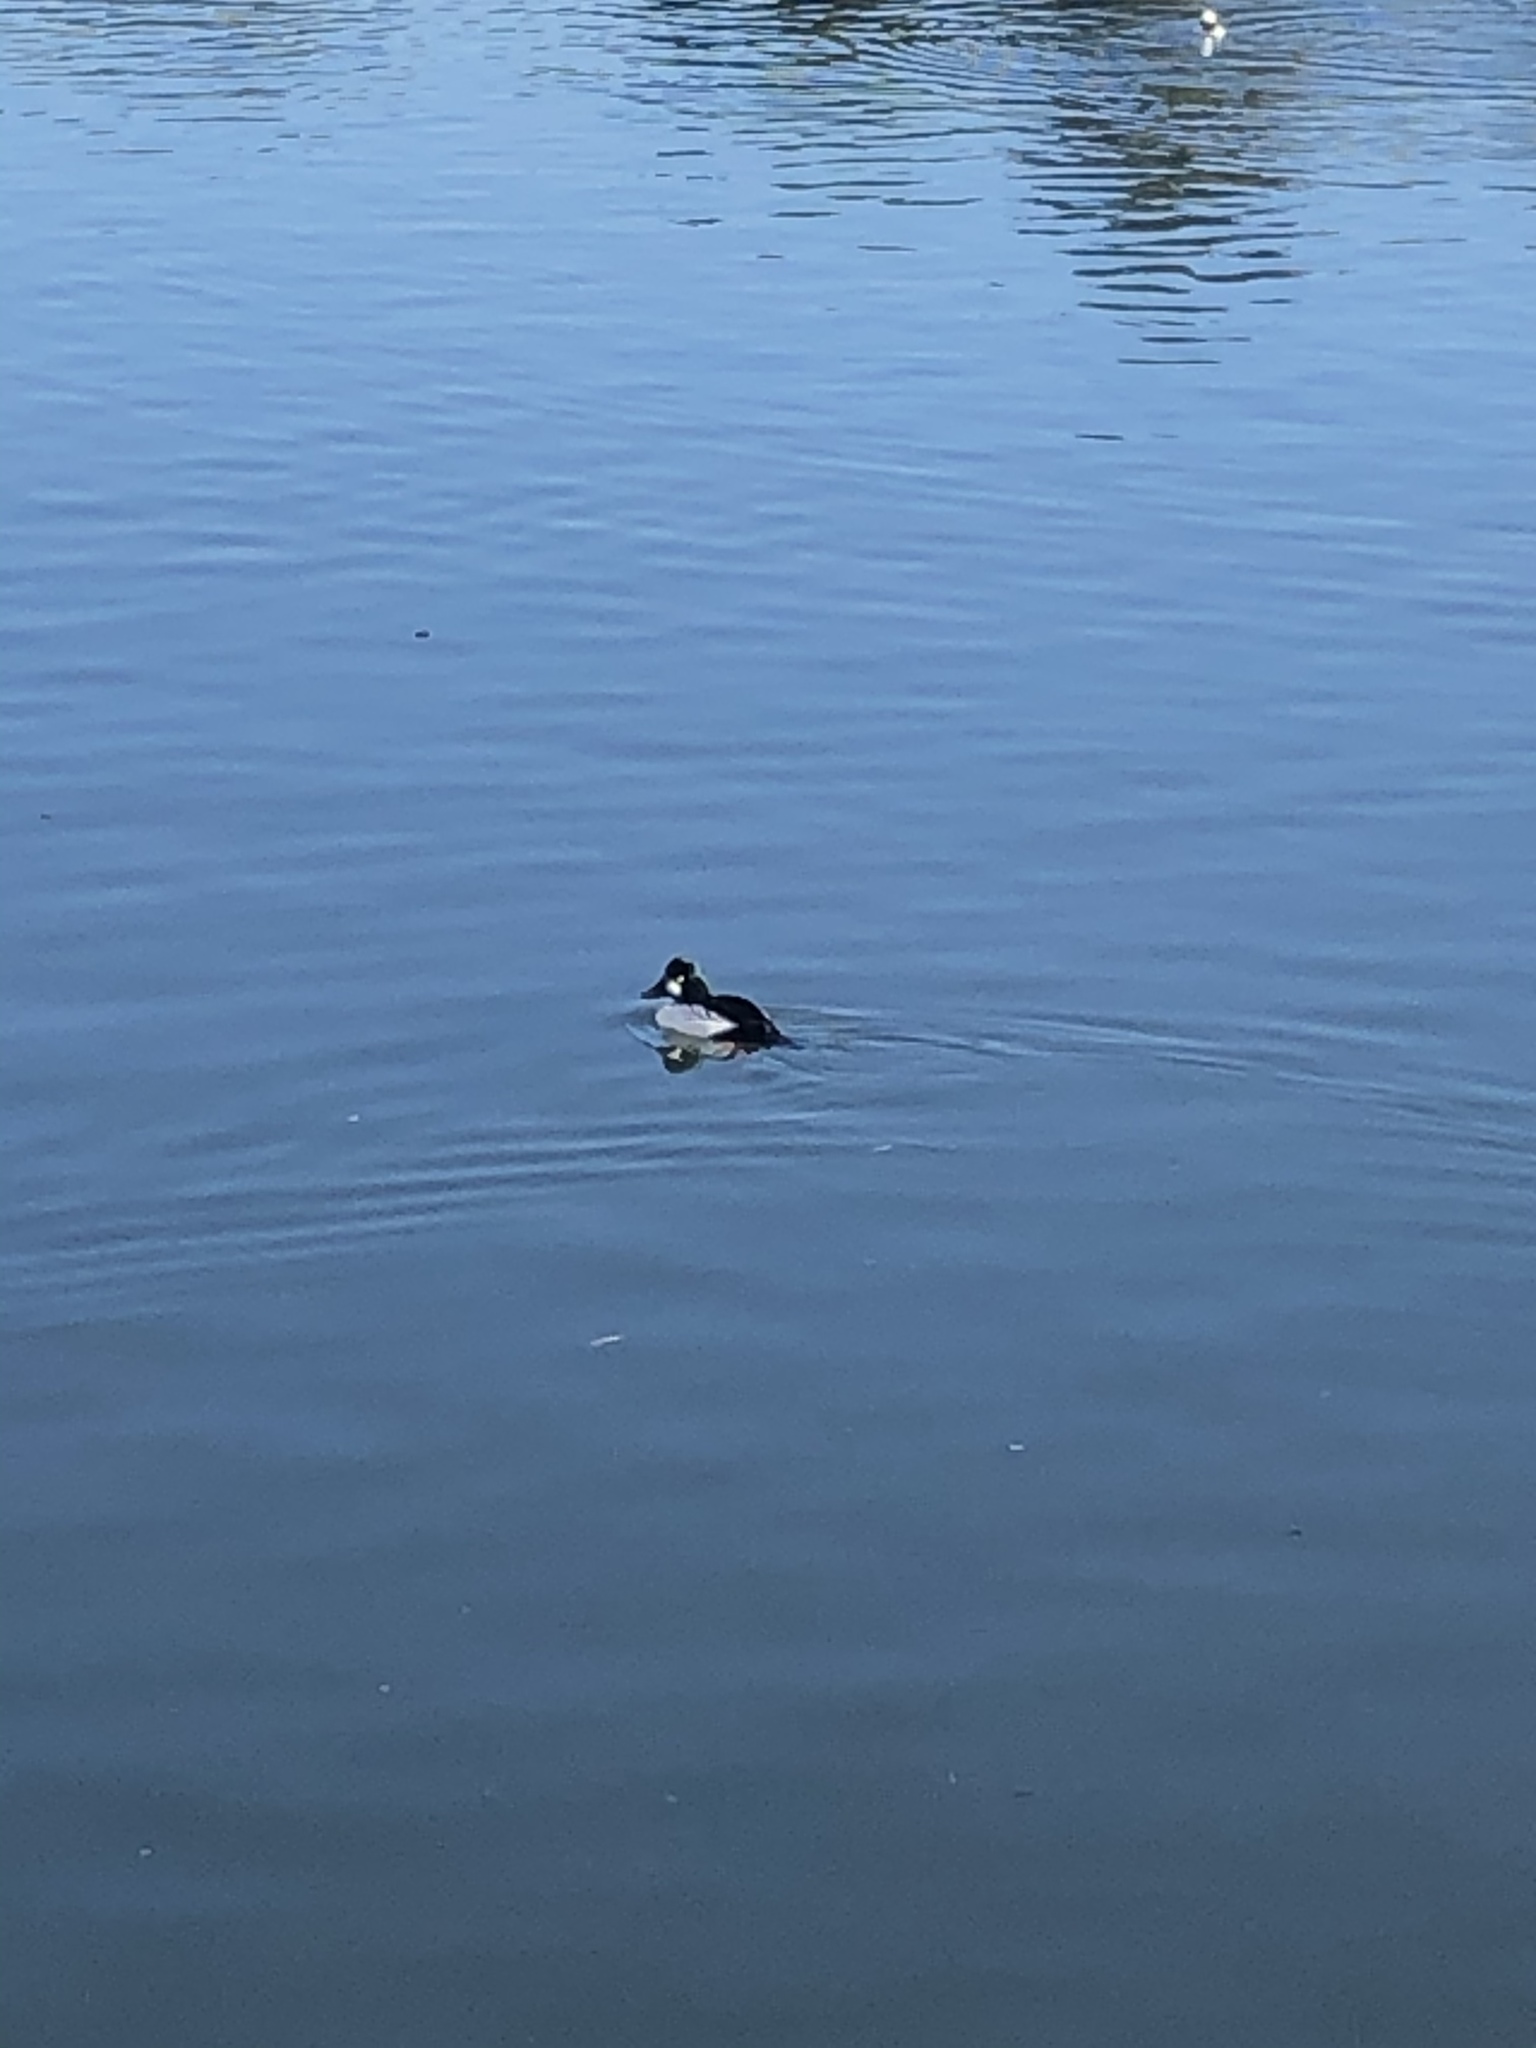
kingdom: Animalia
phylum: Chordata
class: Aves
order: Anseriformes
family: Anatidae
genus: Bucephala
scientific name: Bucephala clangula
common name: Common goldeneye
